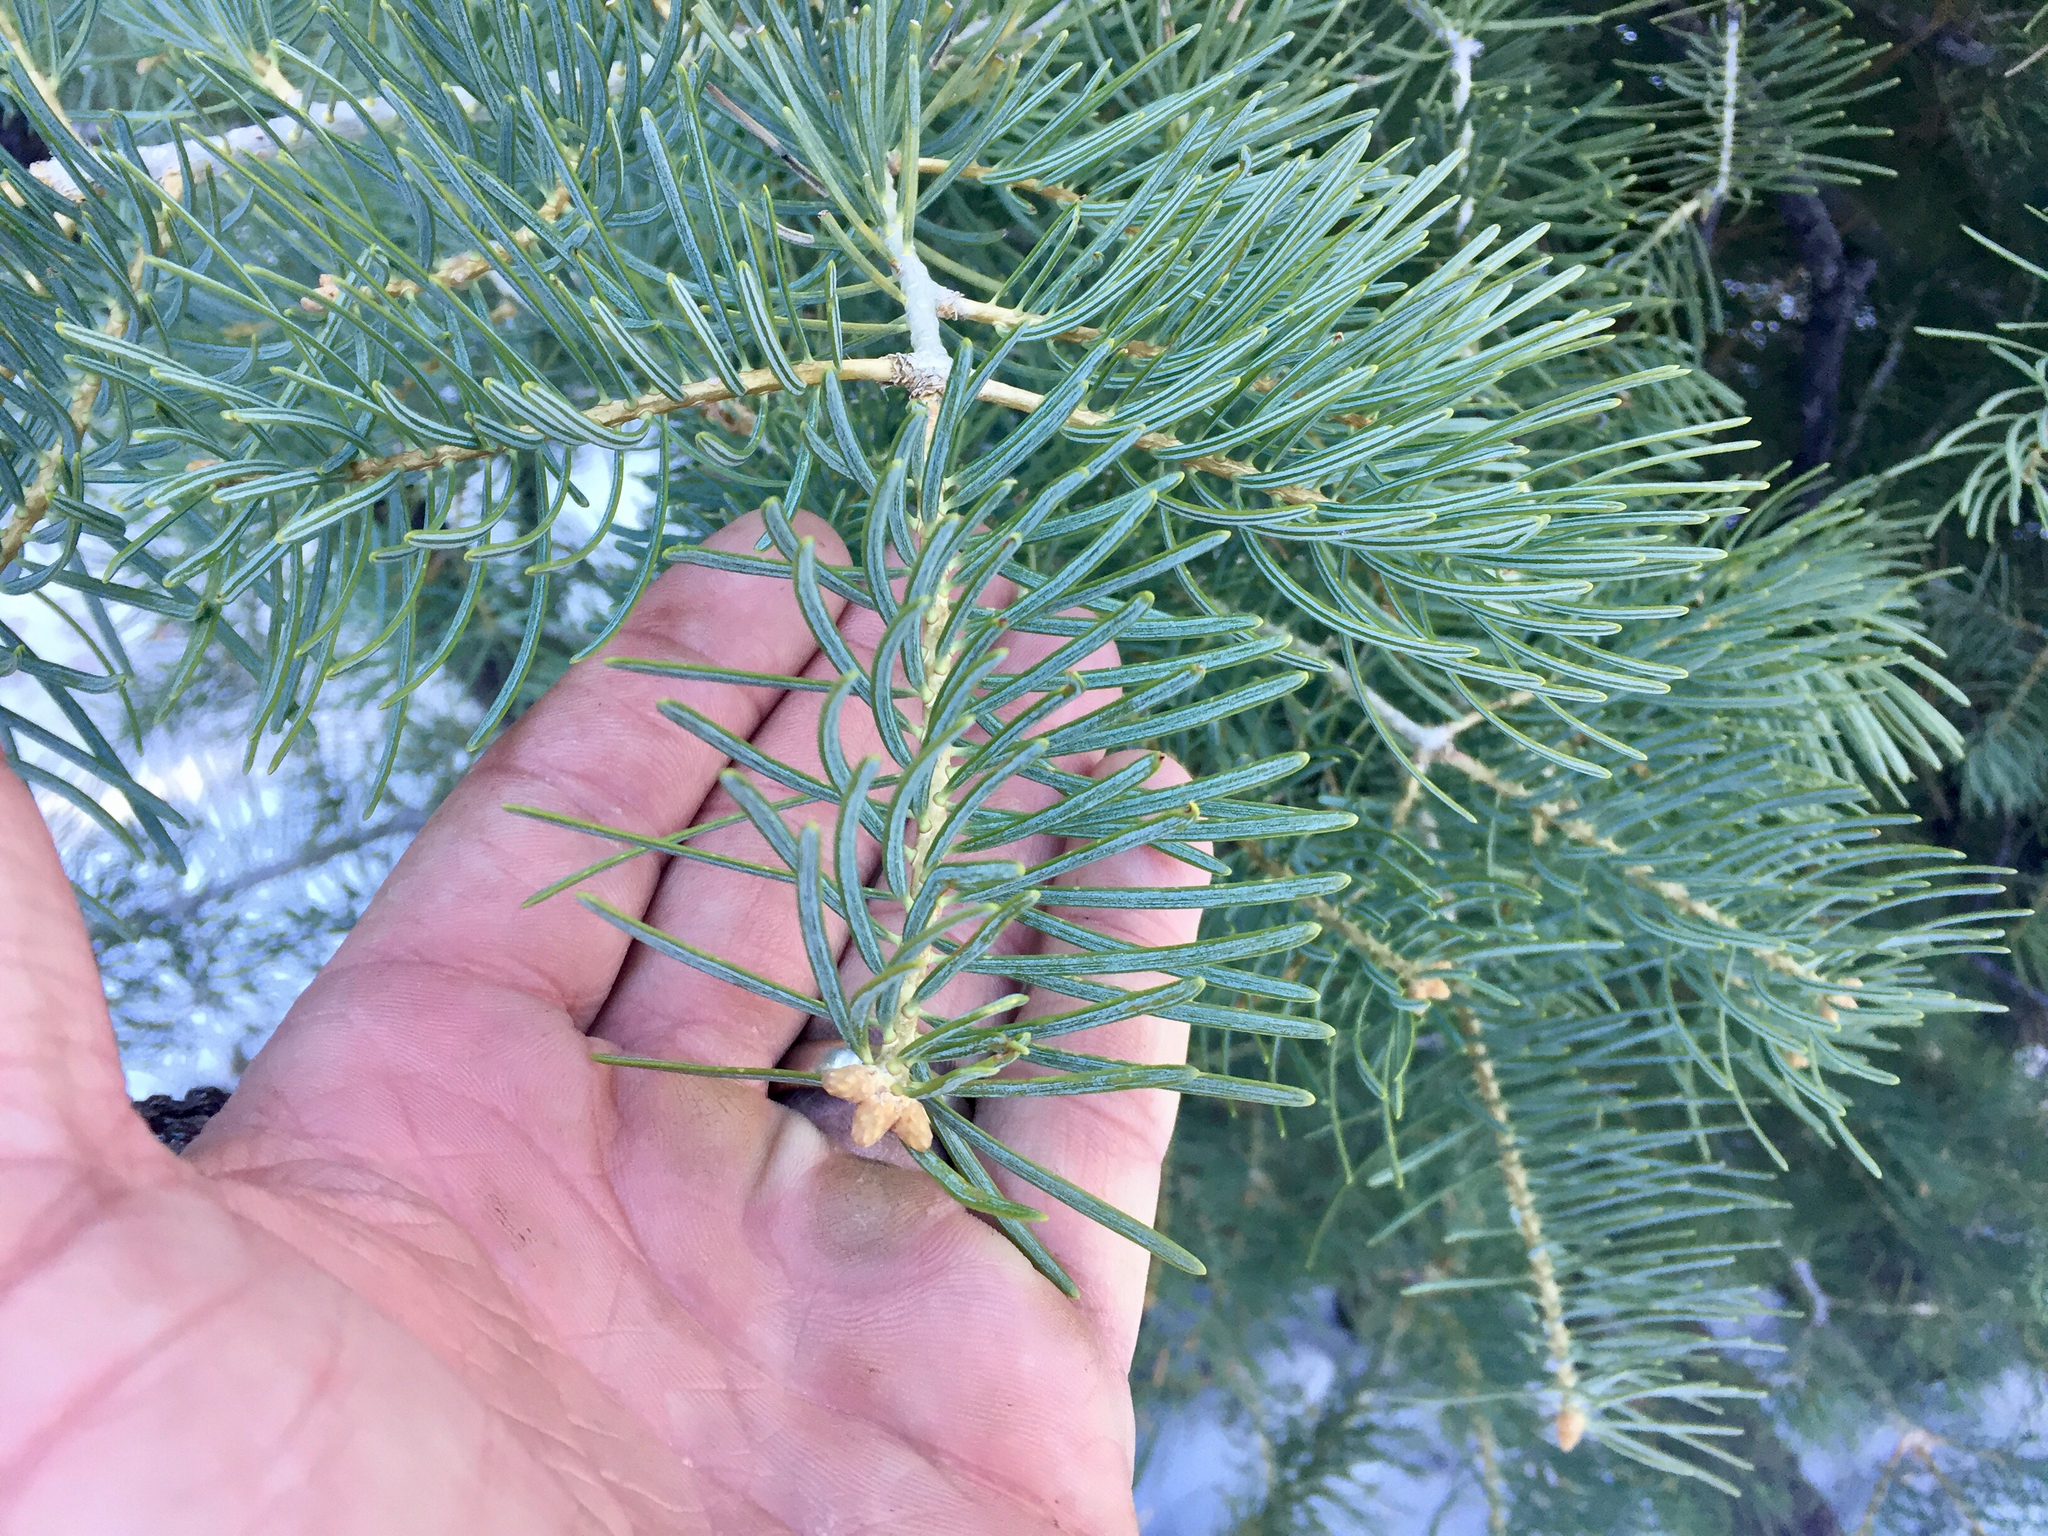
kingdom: Plantae
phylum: Tracheophyta
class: Pinopsida
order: Pinales
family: Pinaceae
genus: Pseudotsuga
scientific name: Pseudotsuga menziesii
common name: Douglas fir
